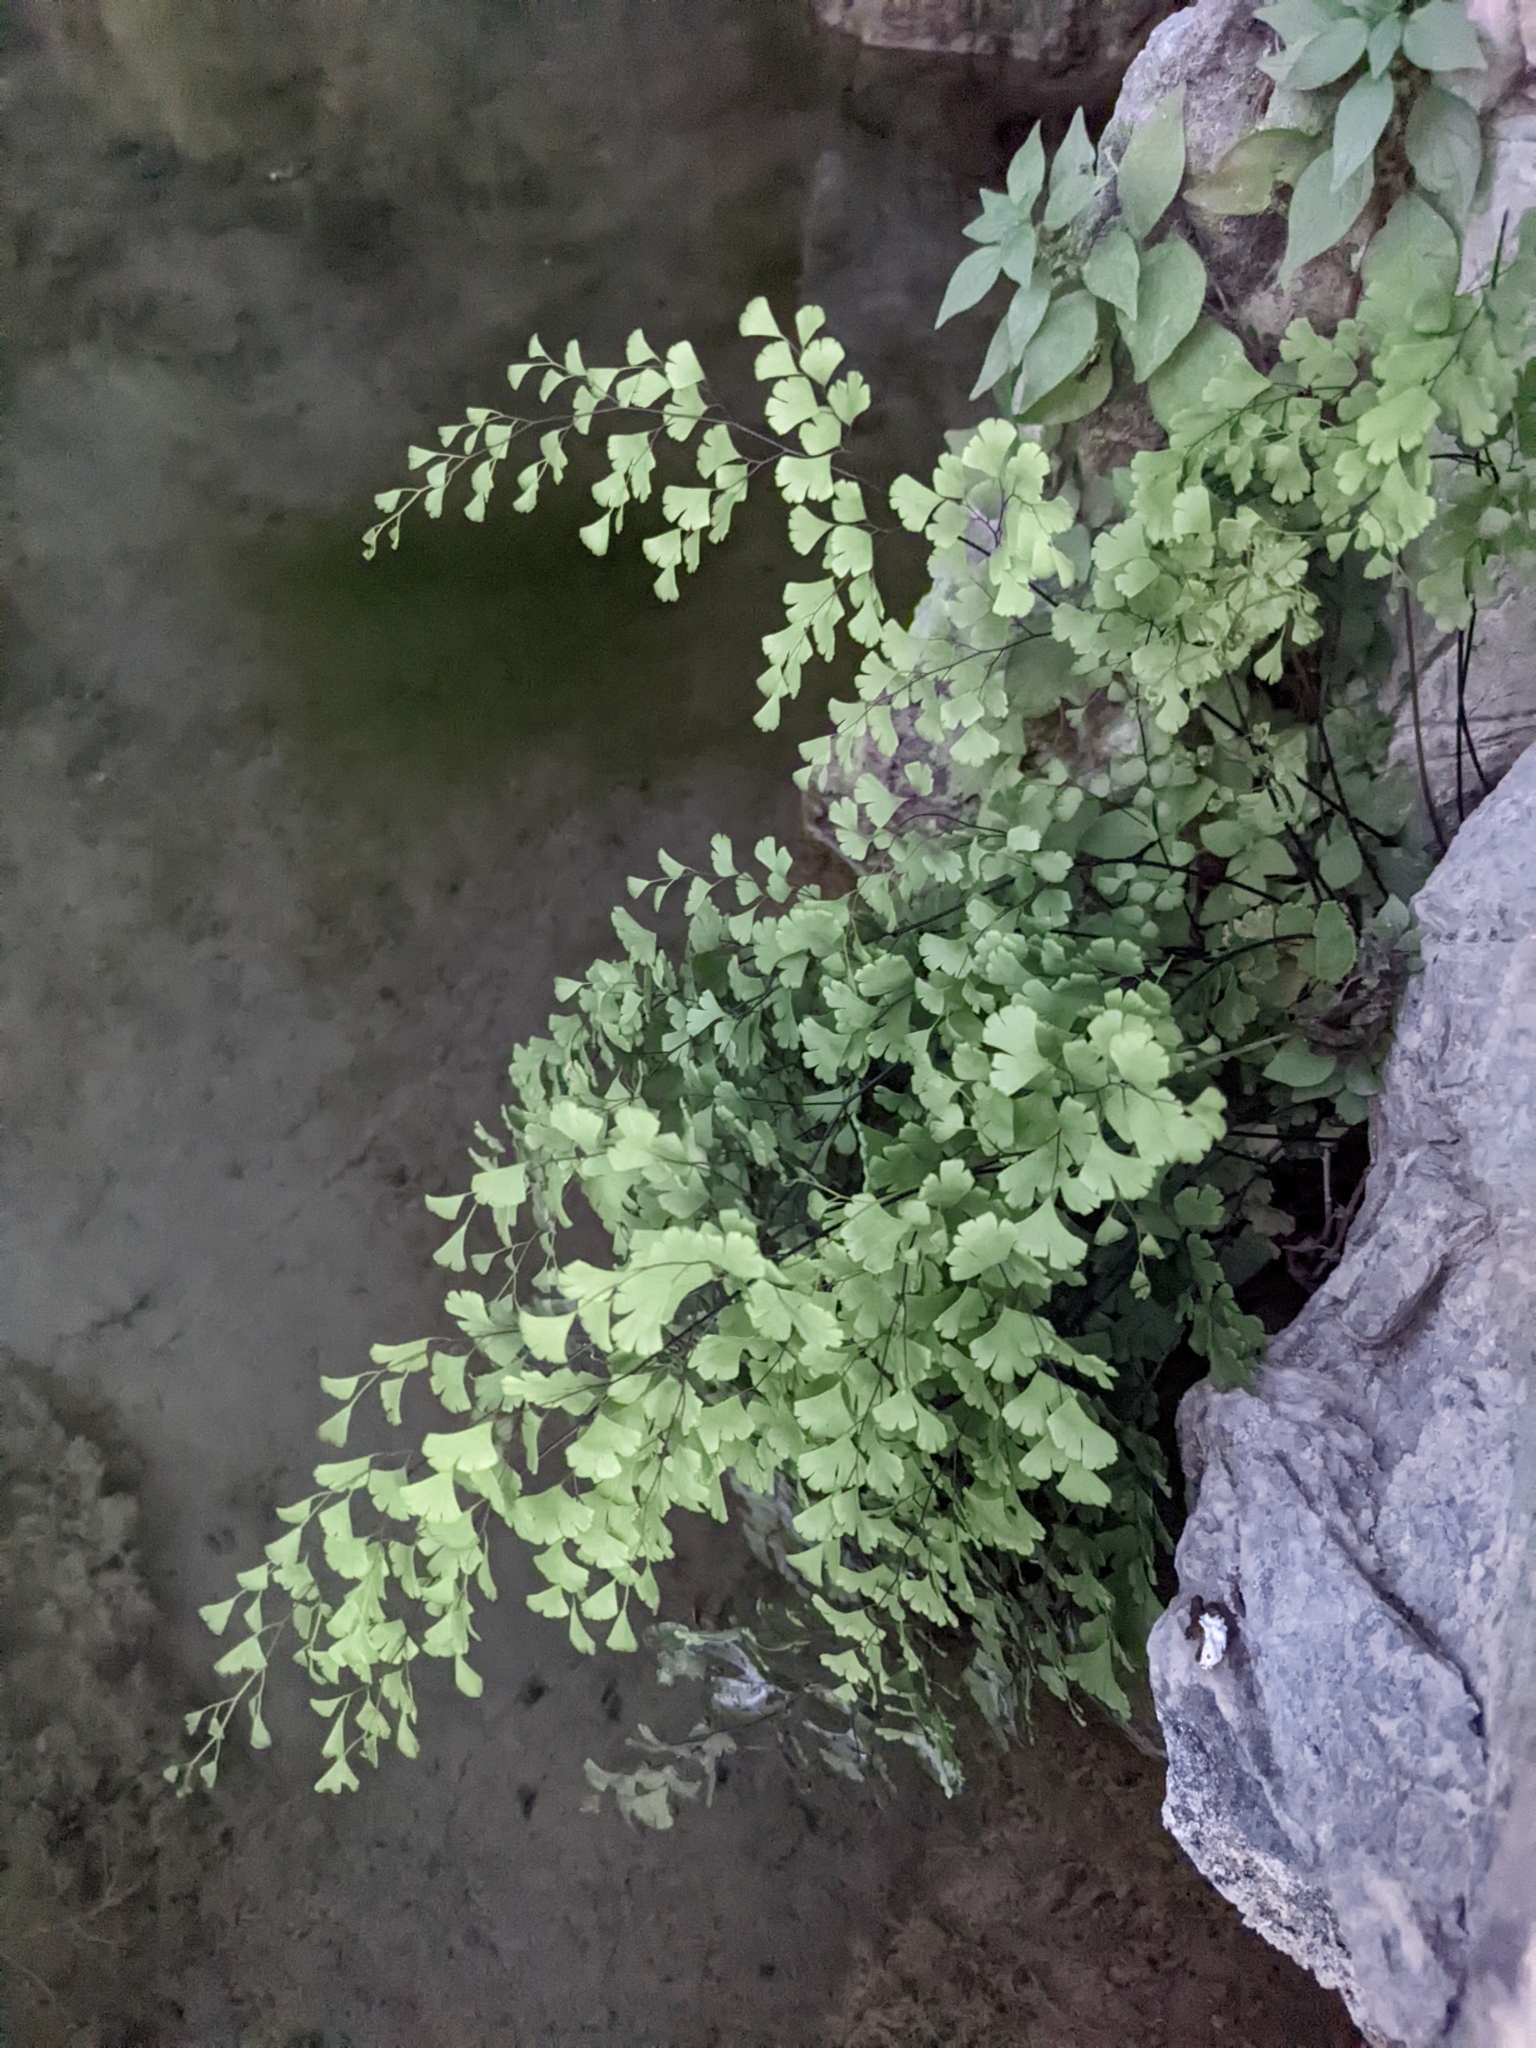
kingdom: Plantae
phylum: Tracheophyta
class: Polypodiopsida
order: Polypodiales
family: Pteridaceae
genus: Adiantum
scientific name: Adiantum capillus-veneris
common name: Maidenhair fern
